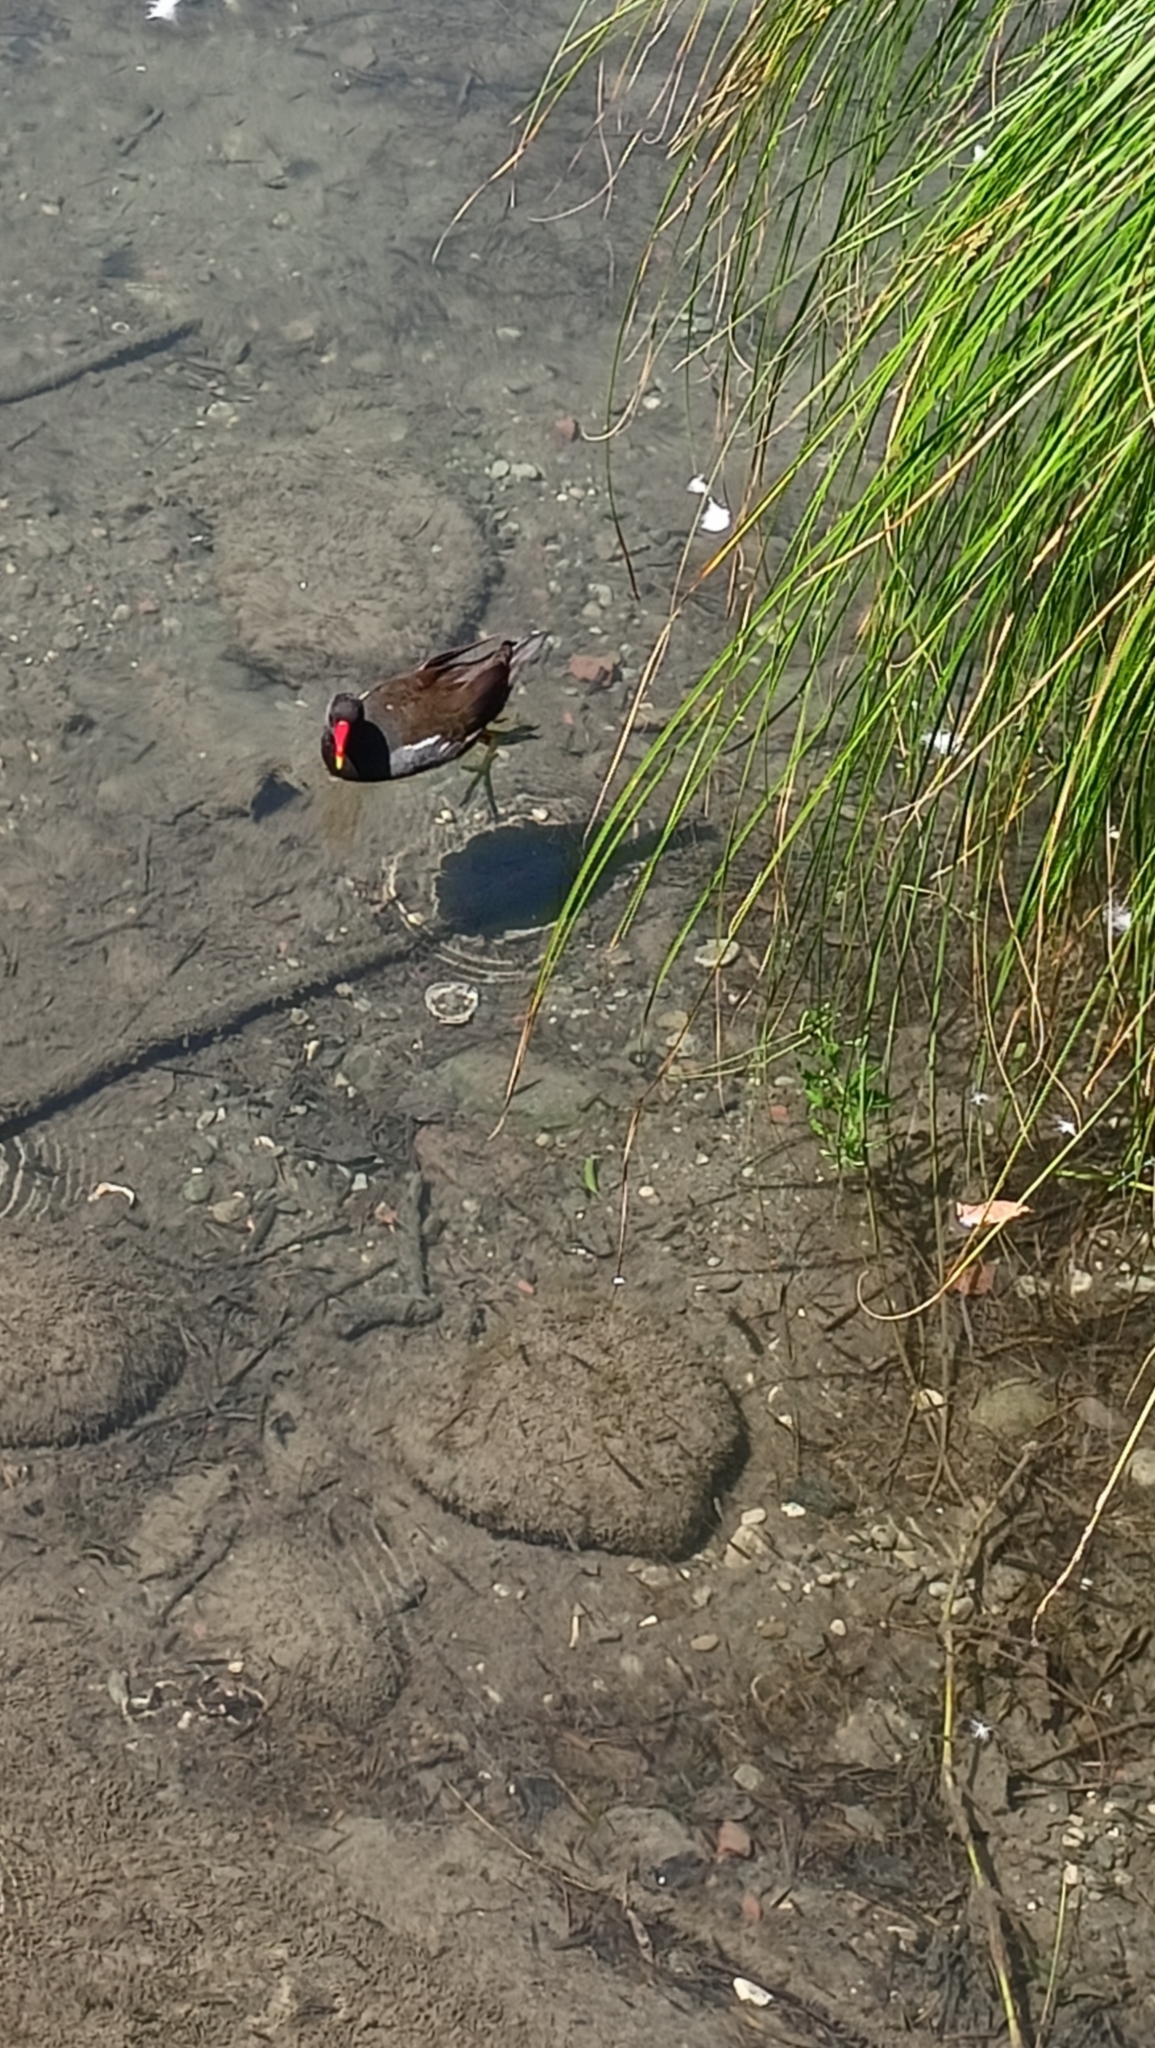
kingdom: Animalia
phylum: Chordata
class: Aves
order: Gruiformes
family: Rallidae
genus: Gallinula
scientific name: Gallinula chloropus
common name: Common moorhen
